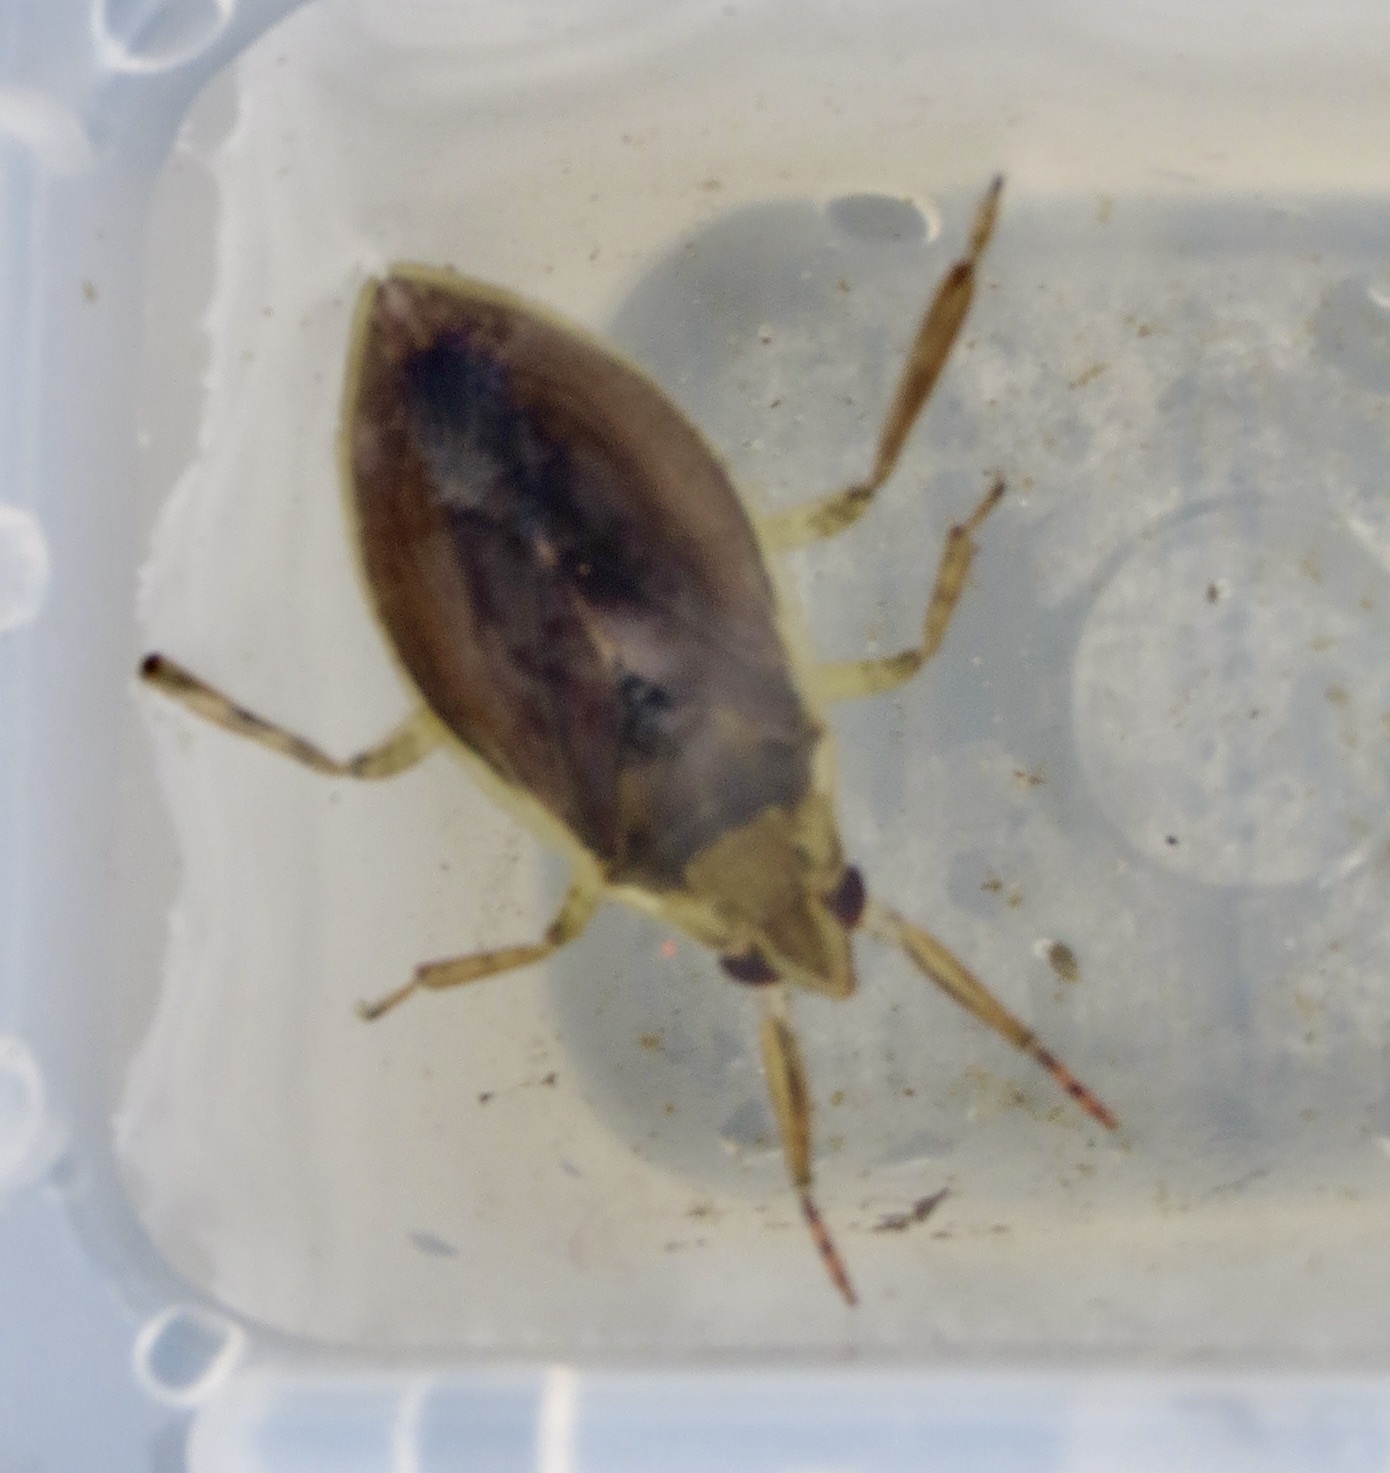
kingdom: Animalia
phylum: Arthropoda
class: Insecta
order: Hemiptera
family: Belostomatidae
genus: Belostoma
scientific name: Belostoma flumineum
